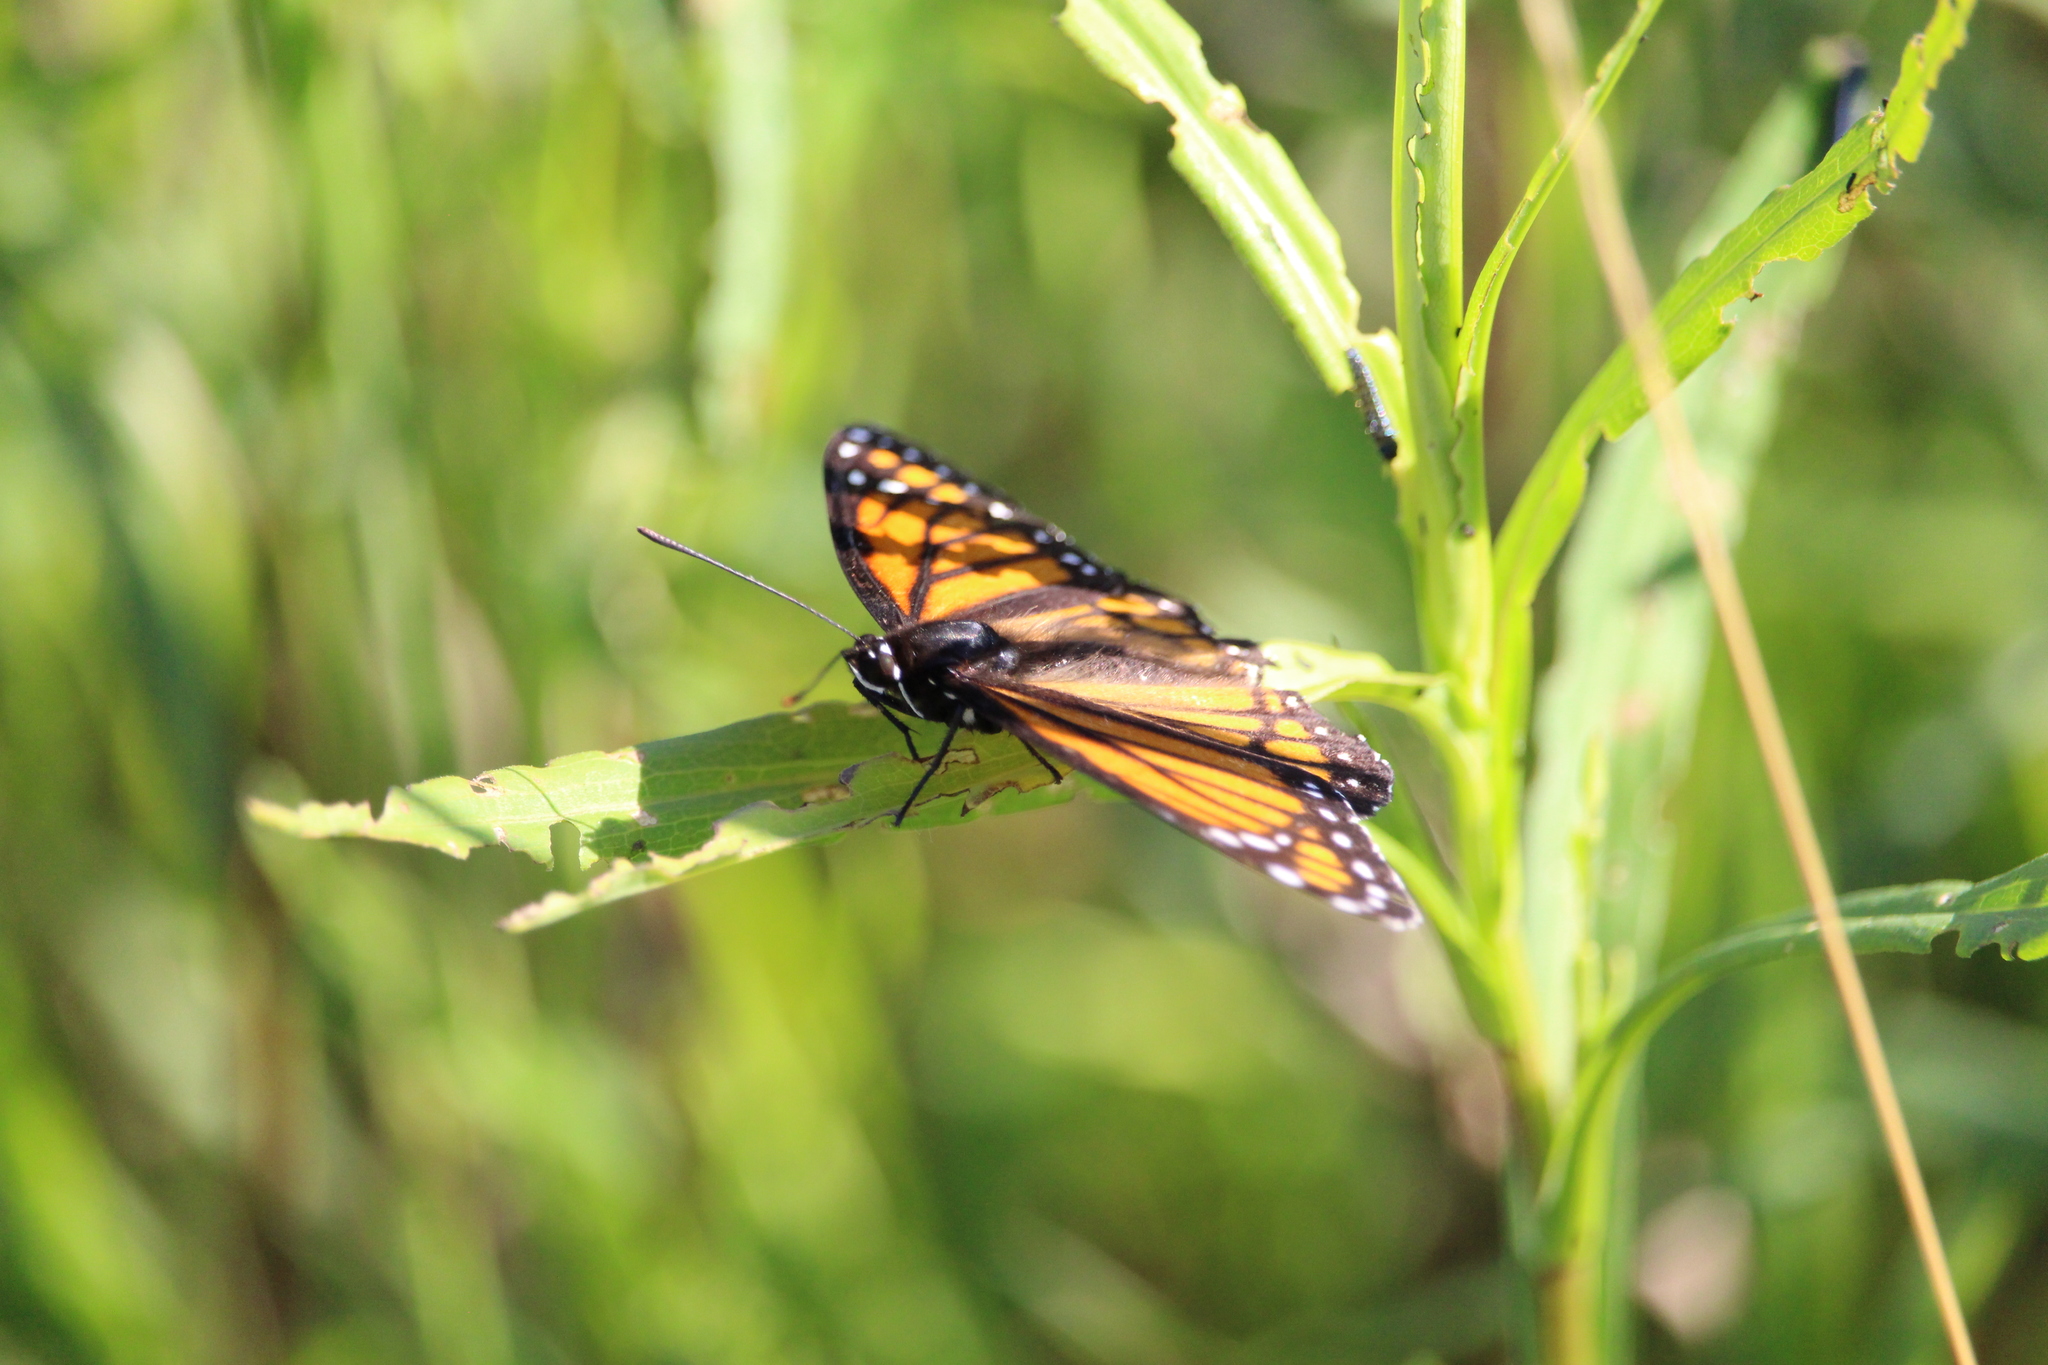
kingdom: Animalia
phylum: Arthropoda
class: Insecta
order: Lepidoptera
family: Nymphalidae
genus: Limenitis
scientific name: Limenitis archippus
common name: Viceroy
